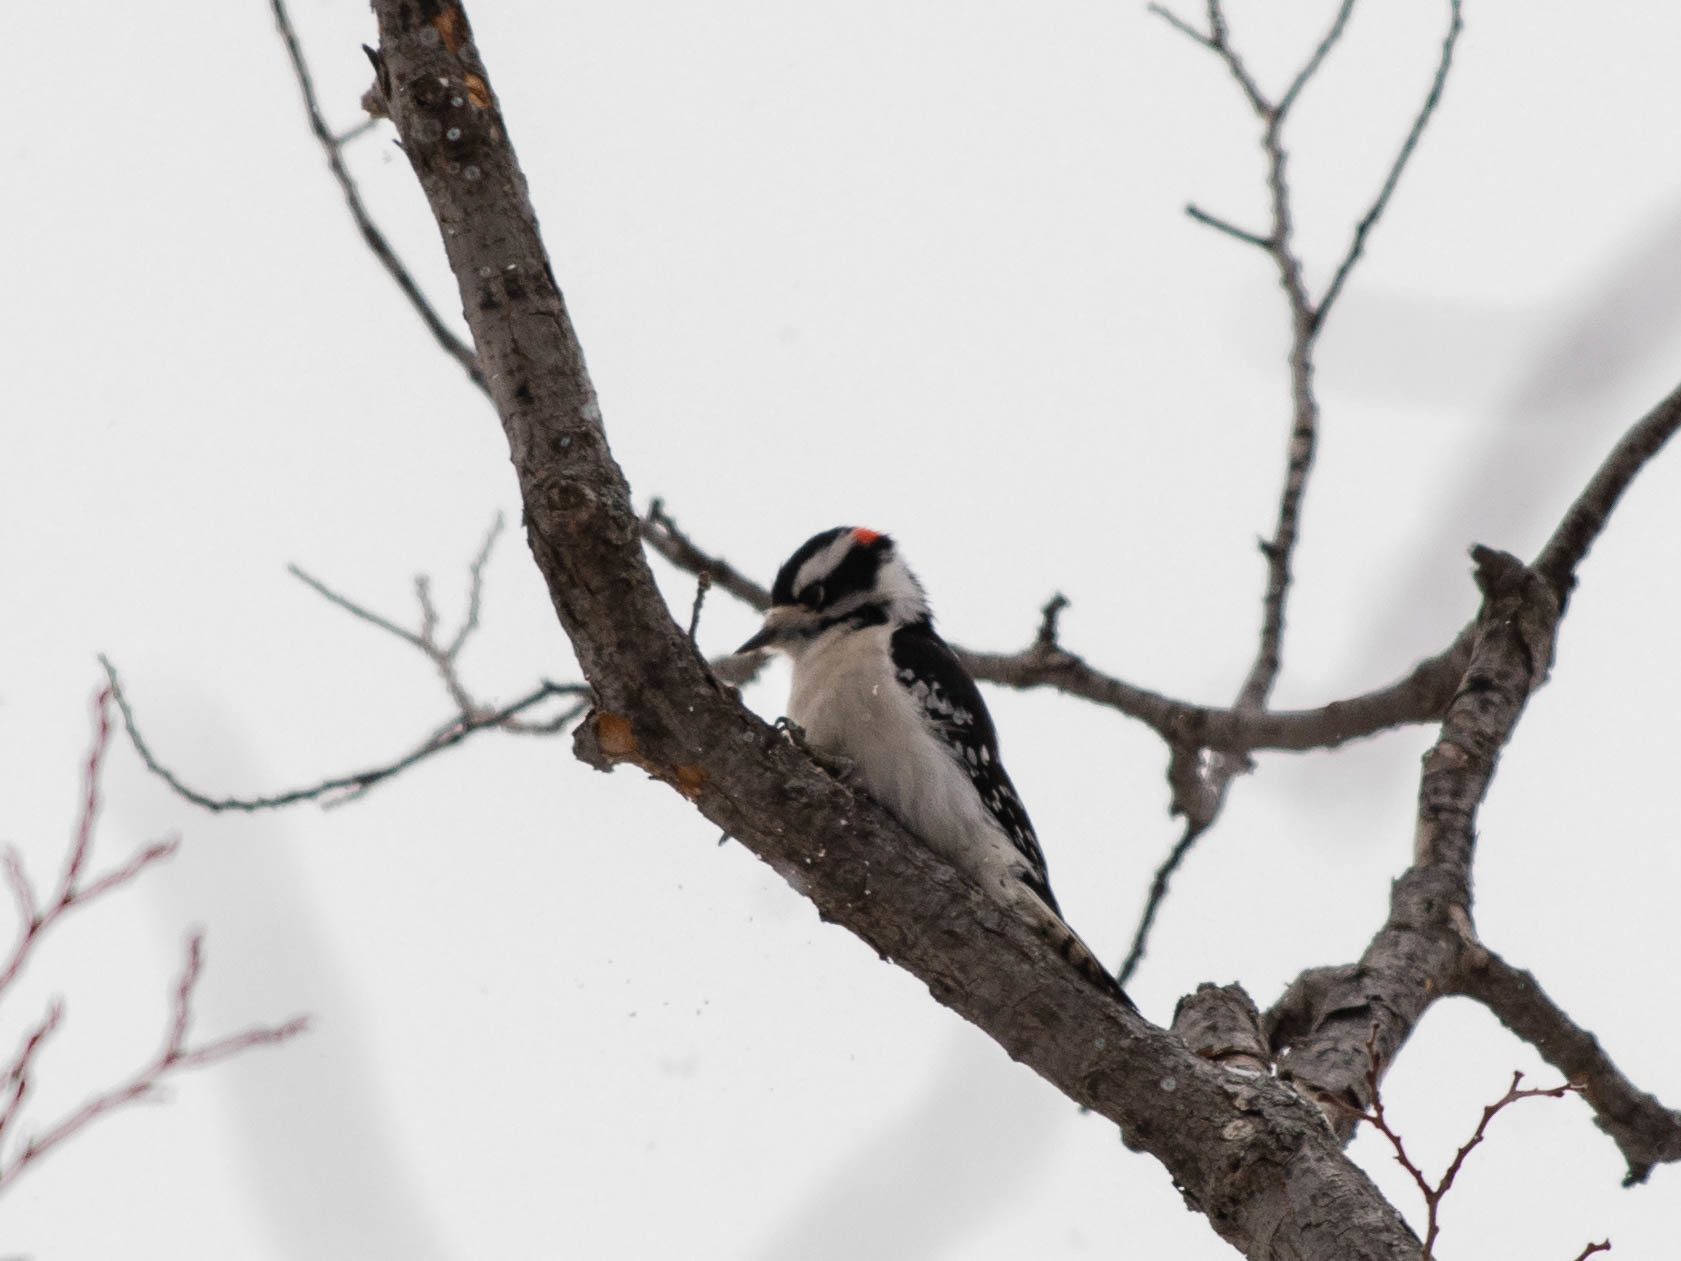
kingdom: Animalia
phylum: Chordata
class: Aves
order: Piciformes
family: Picidae
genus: Dryobates
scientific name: Dryobates pubescens
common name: Downy woodpecker
